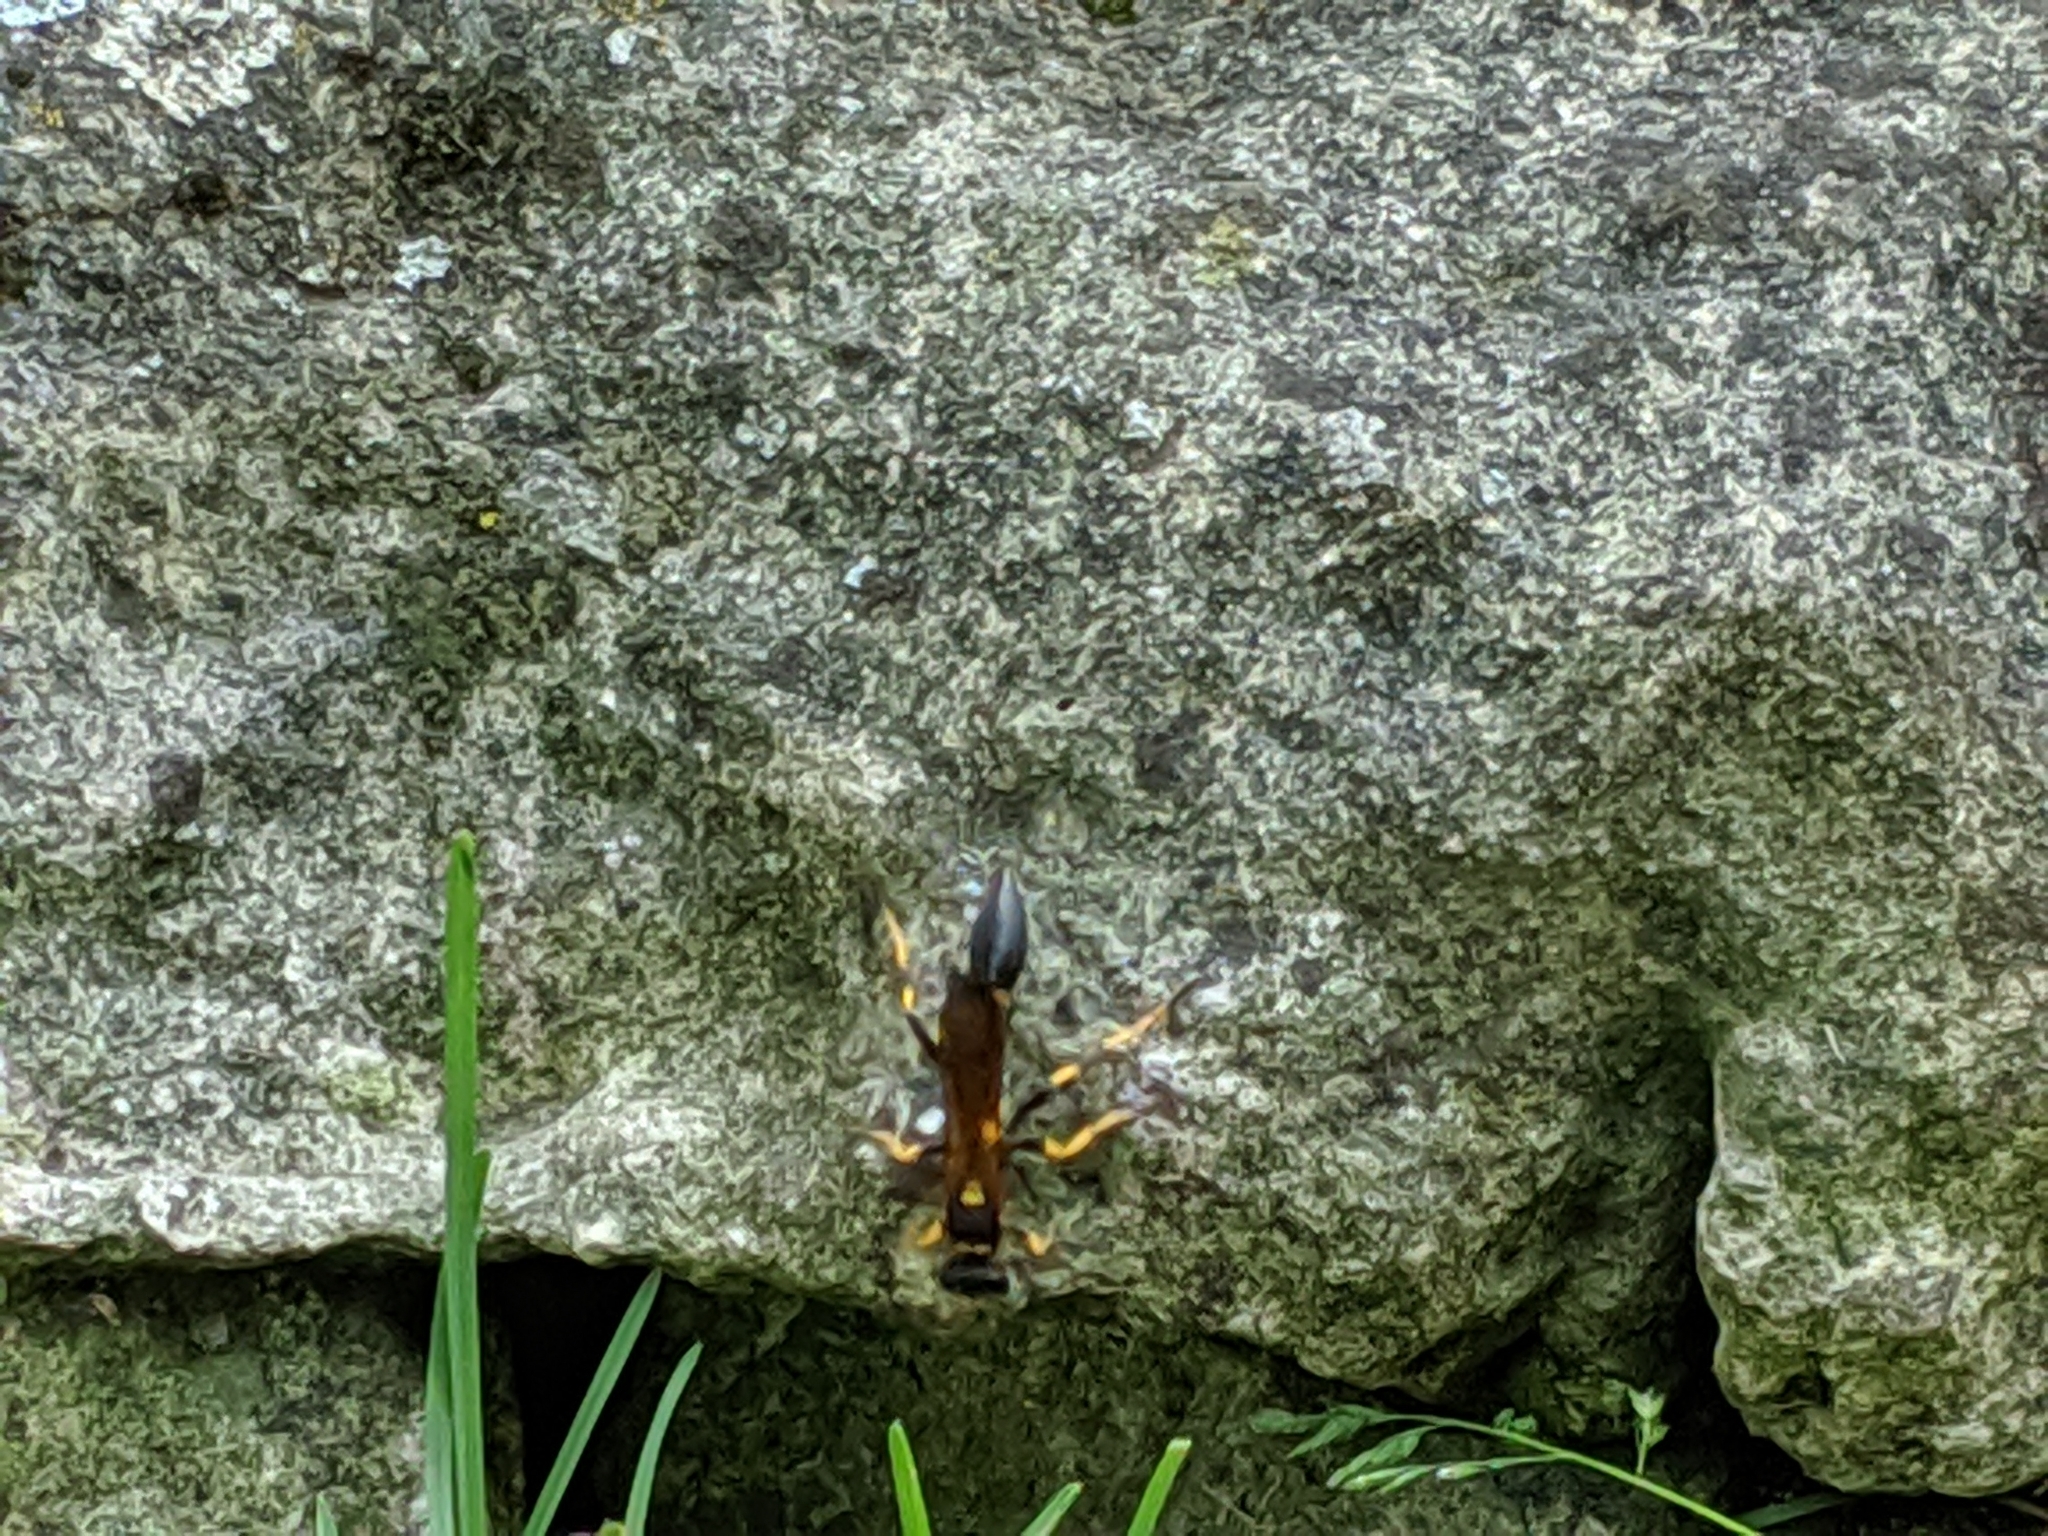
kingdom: Animalia
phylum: Arthropoda
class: Insecta
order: Hymenoptera
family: Sphecidae
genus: Sceliphron
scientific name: Sceliphron caementarium
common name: Mud dauber
